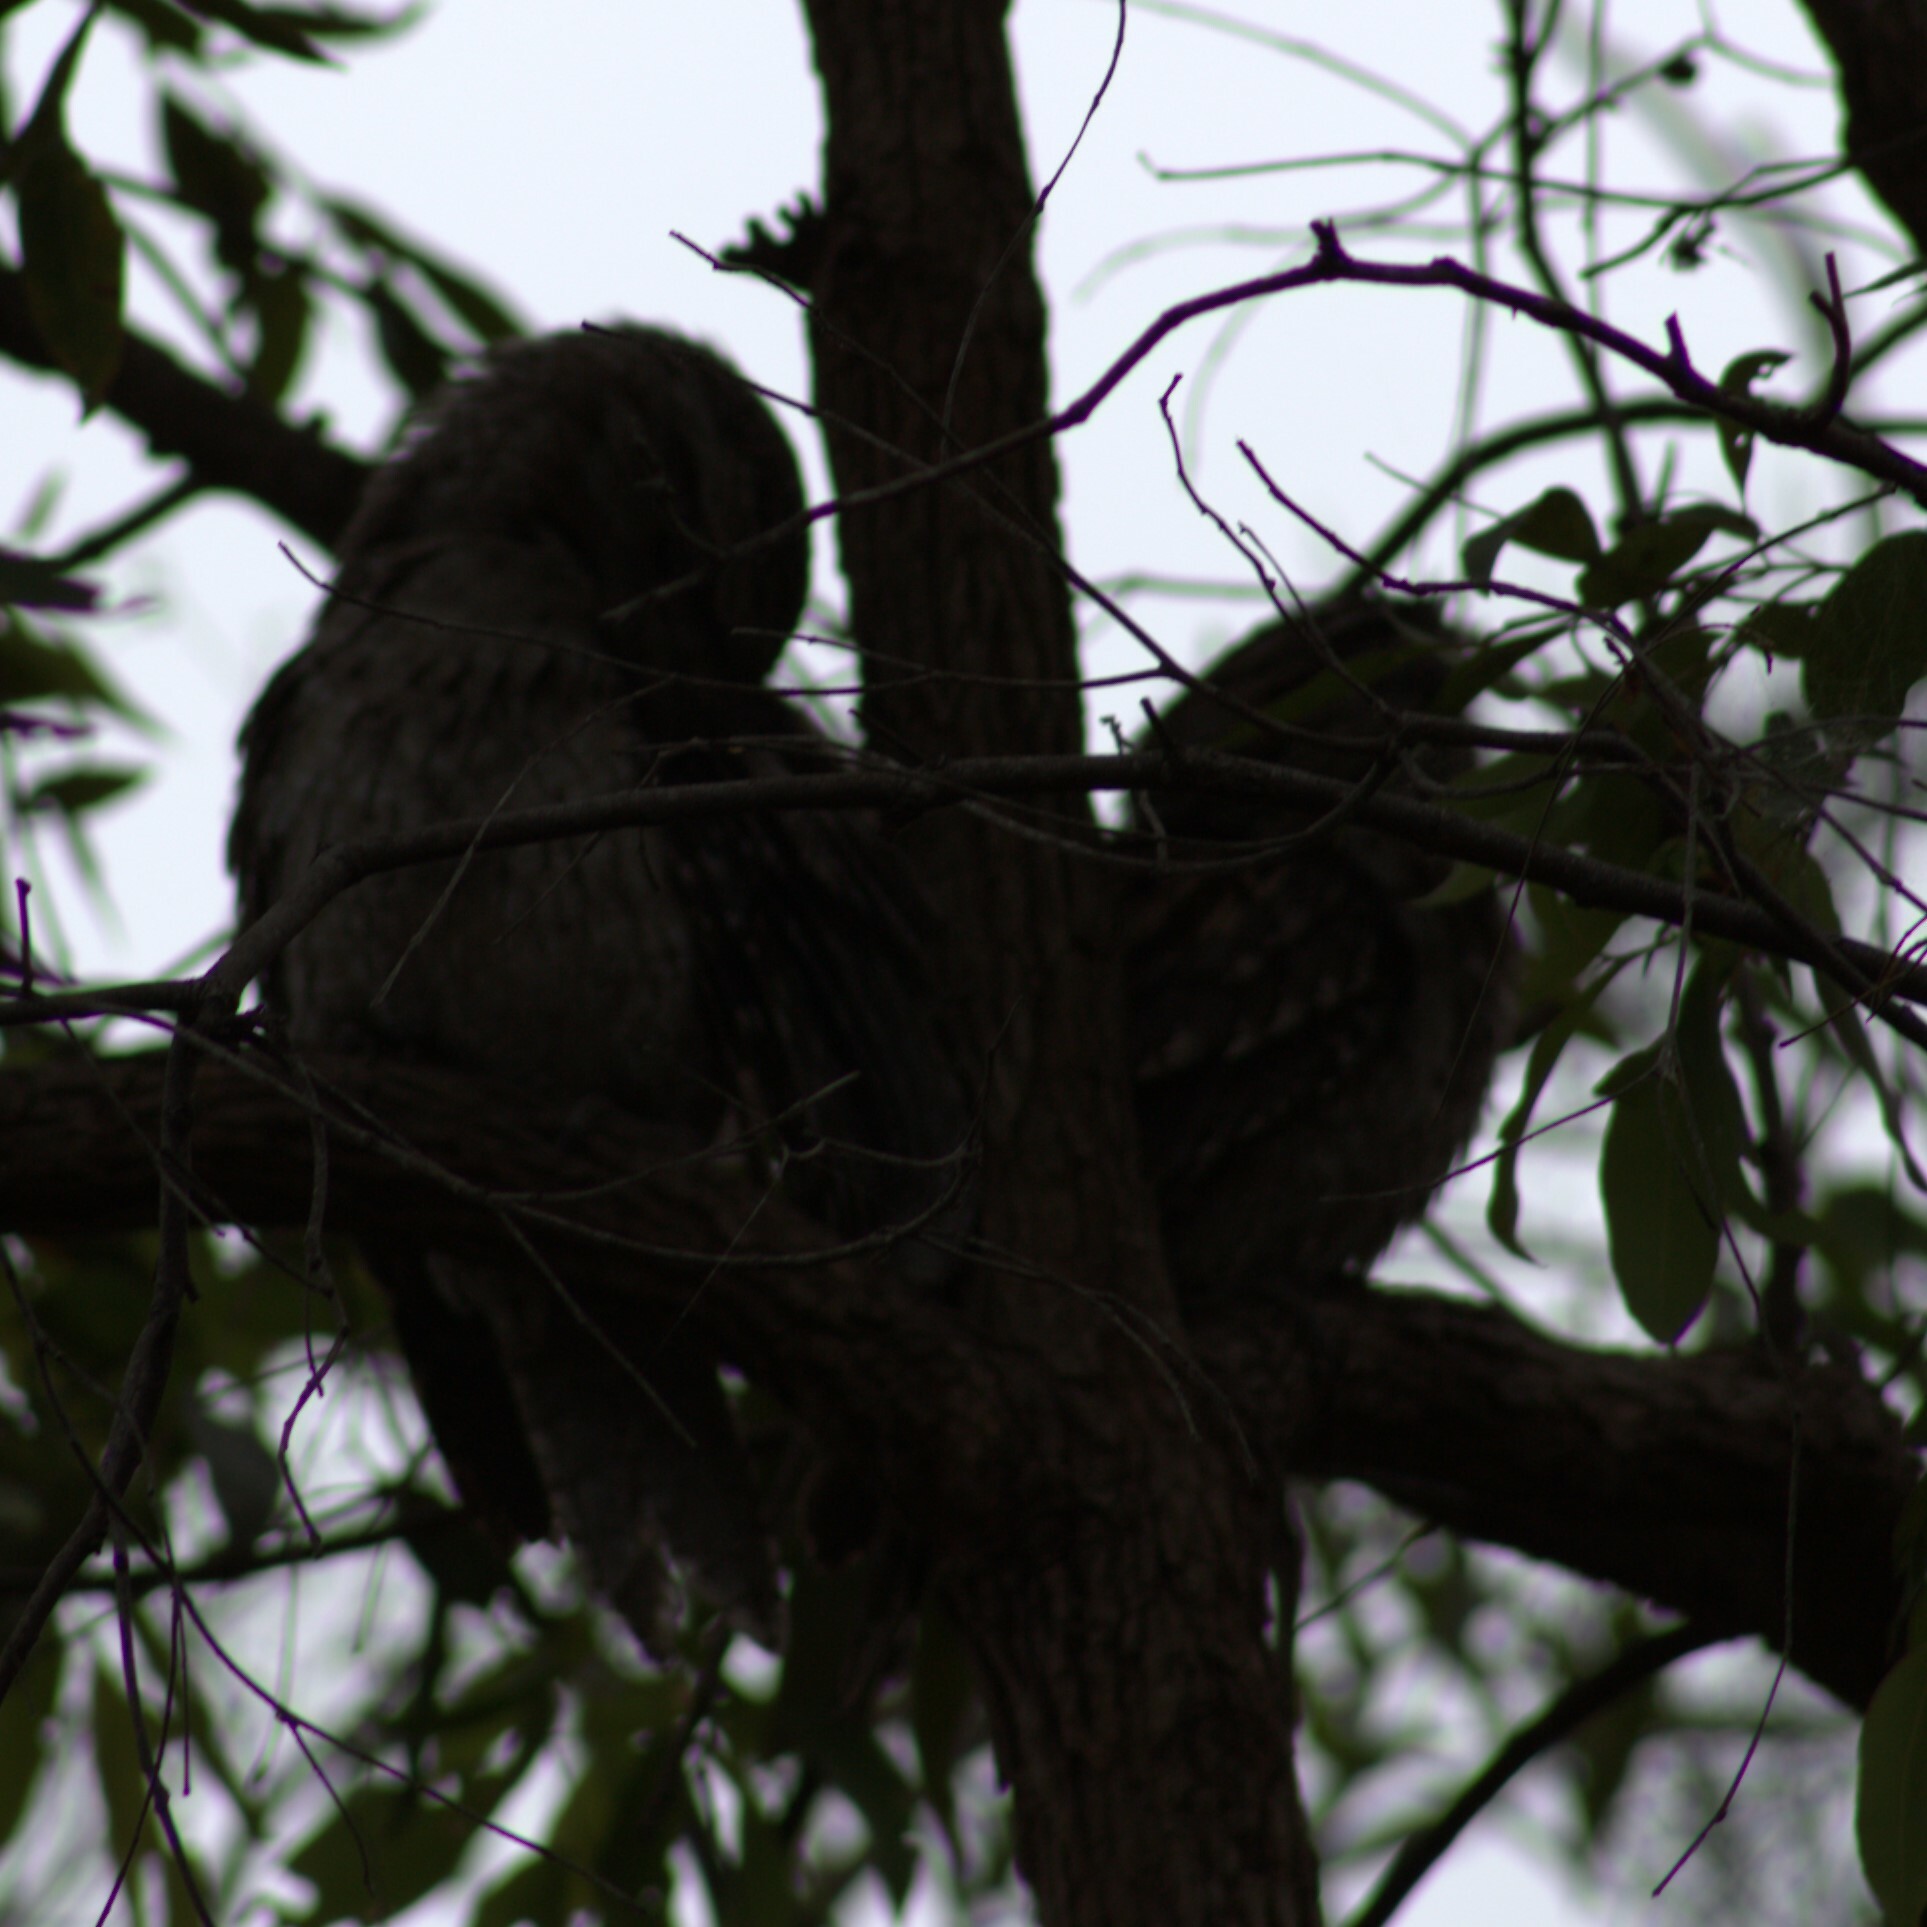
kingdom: Animalia
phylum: Chordata
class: Aves
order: Caprimulgiformes
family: Podargidae
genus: Podargus
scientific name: Podargus strigoides
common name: Tawny frogmouth
